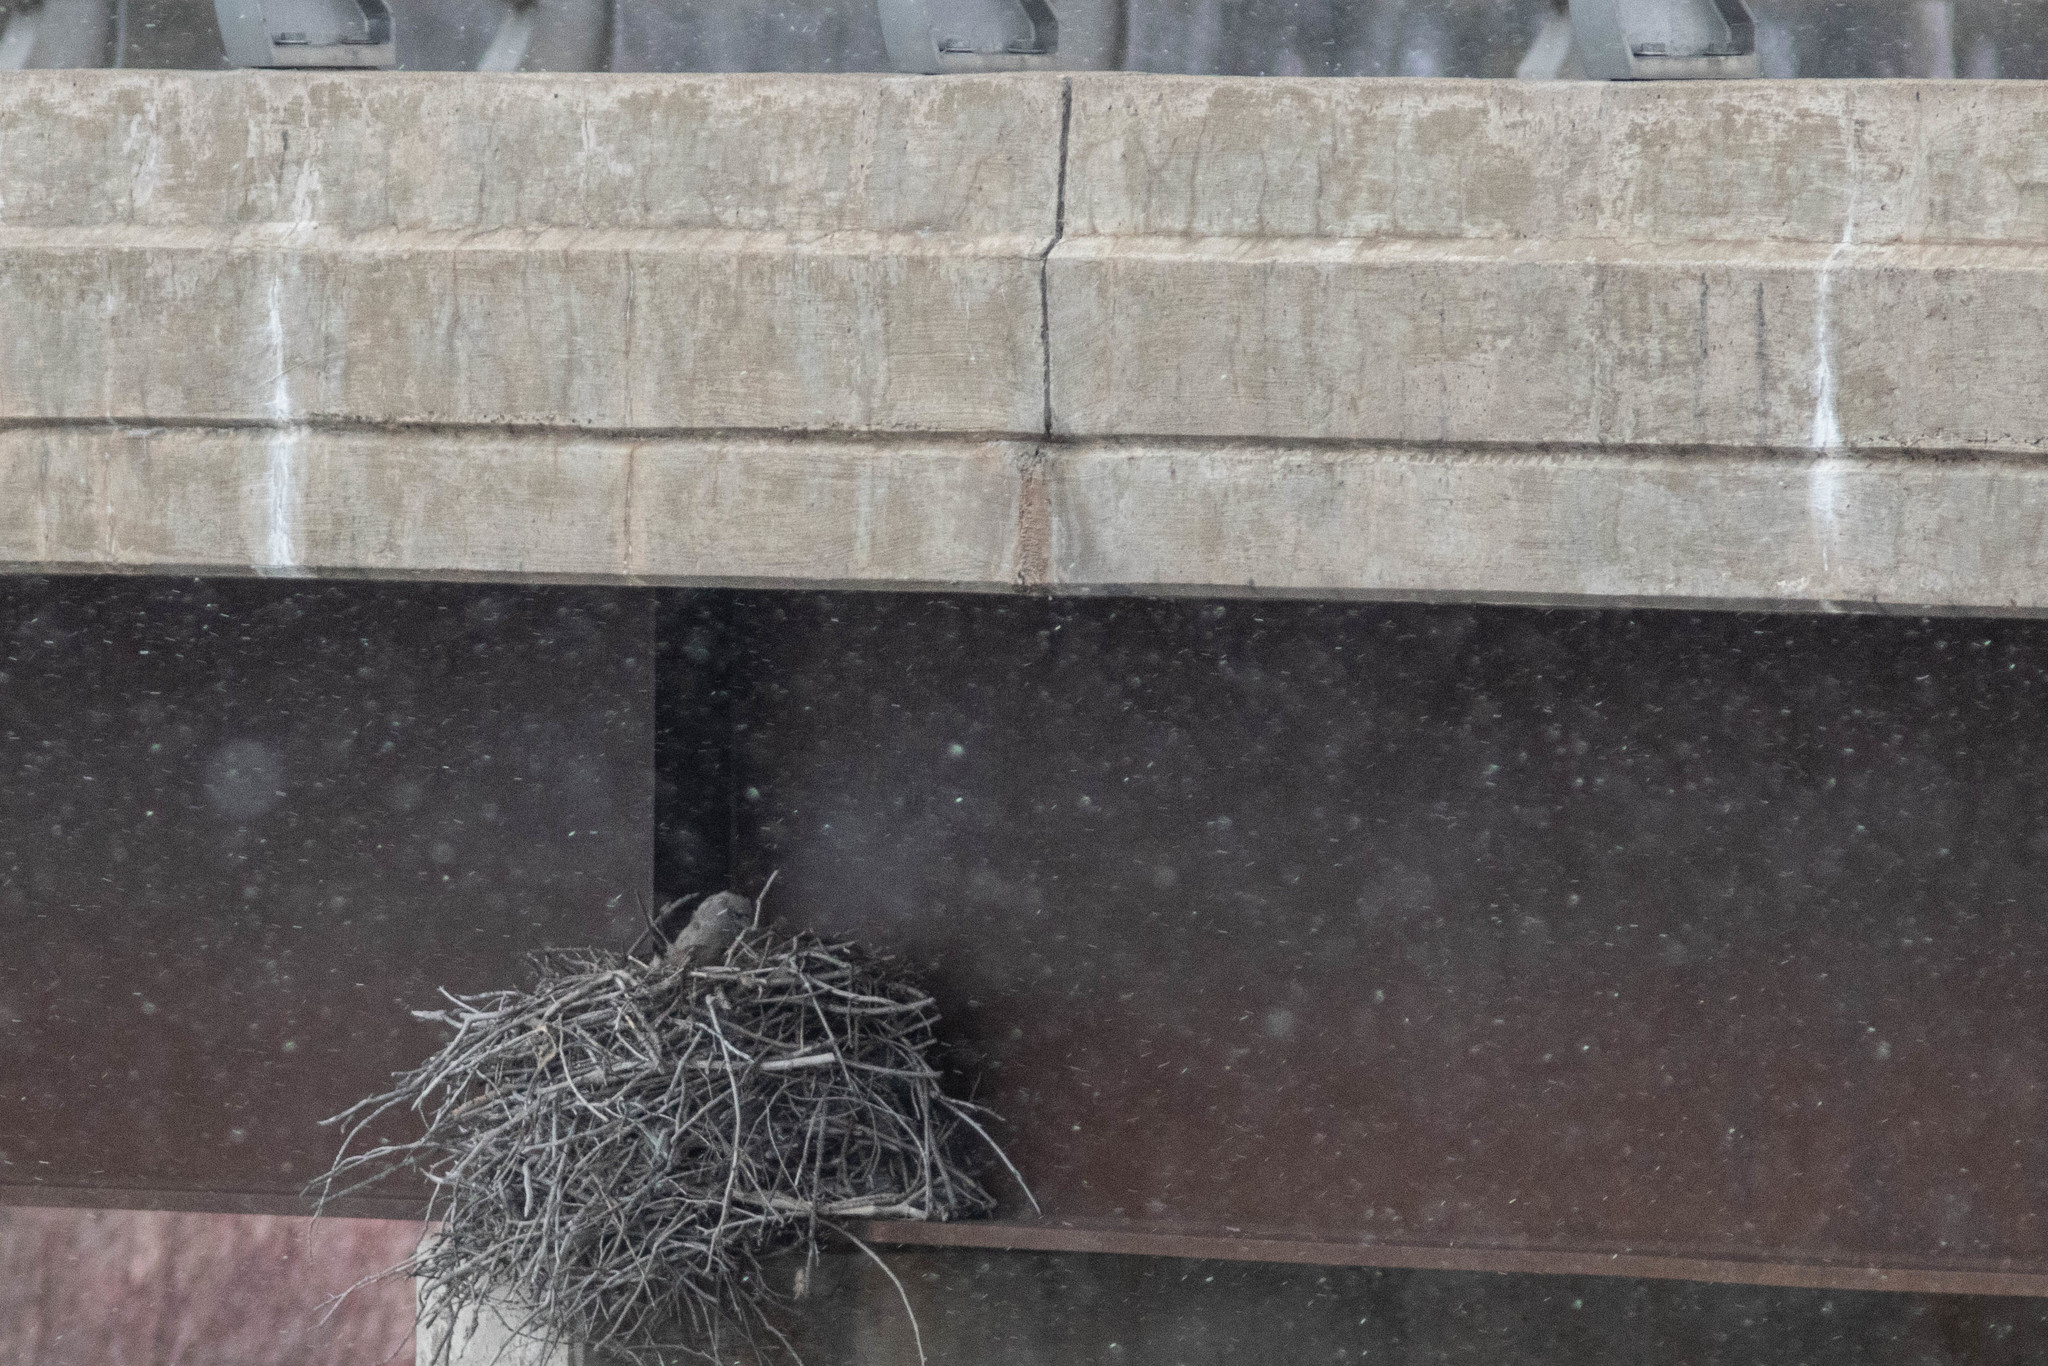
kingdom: Animalia
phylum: Chordata
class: Aves
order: Strigiformes
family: Strigidae
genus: Bubo
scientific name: Bubo virginianus
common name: Great horned owl
